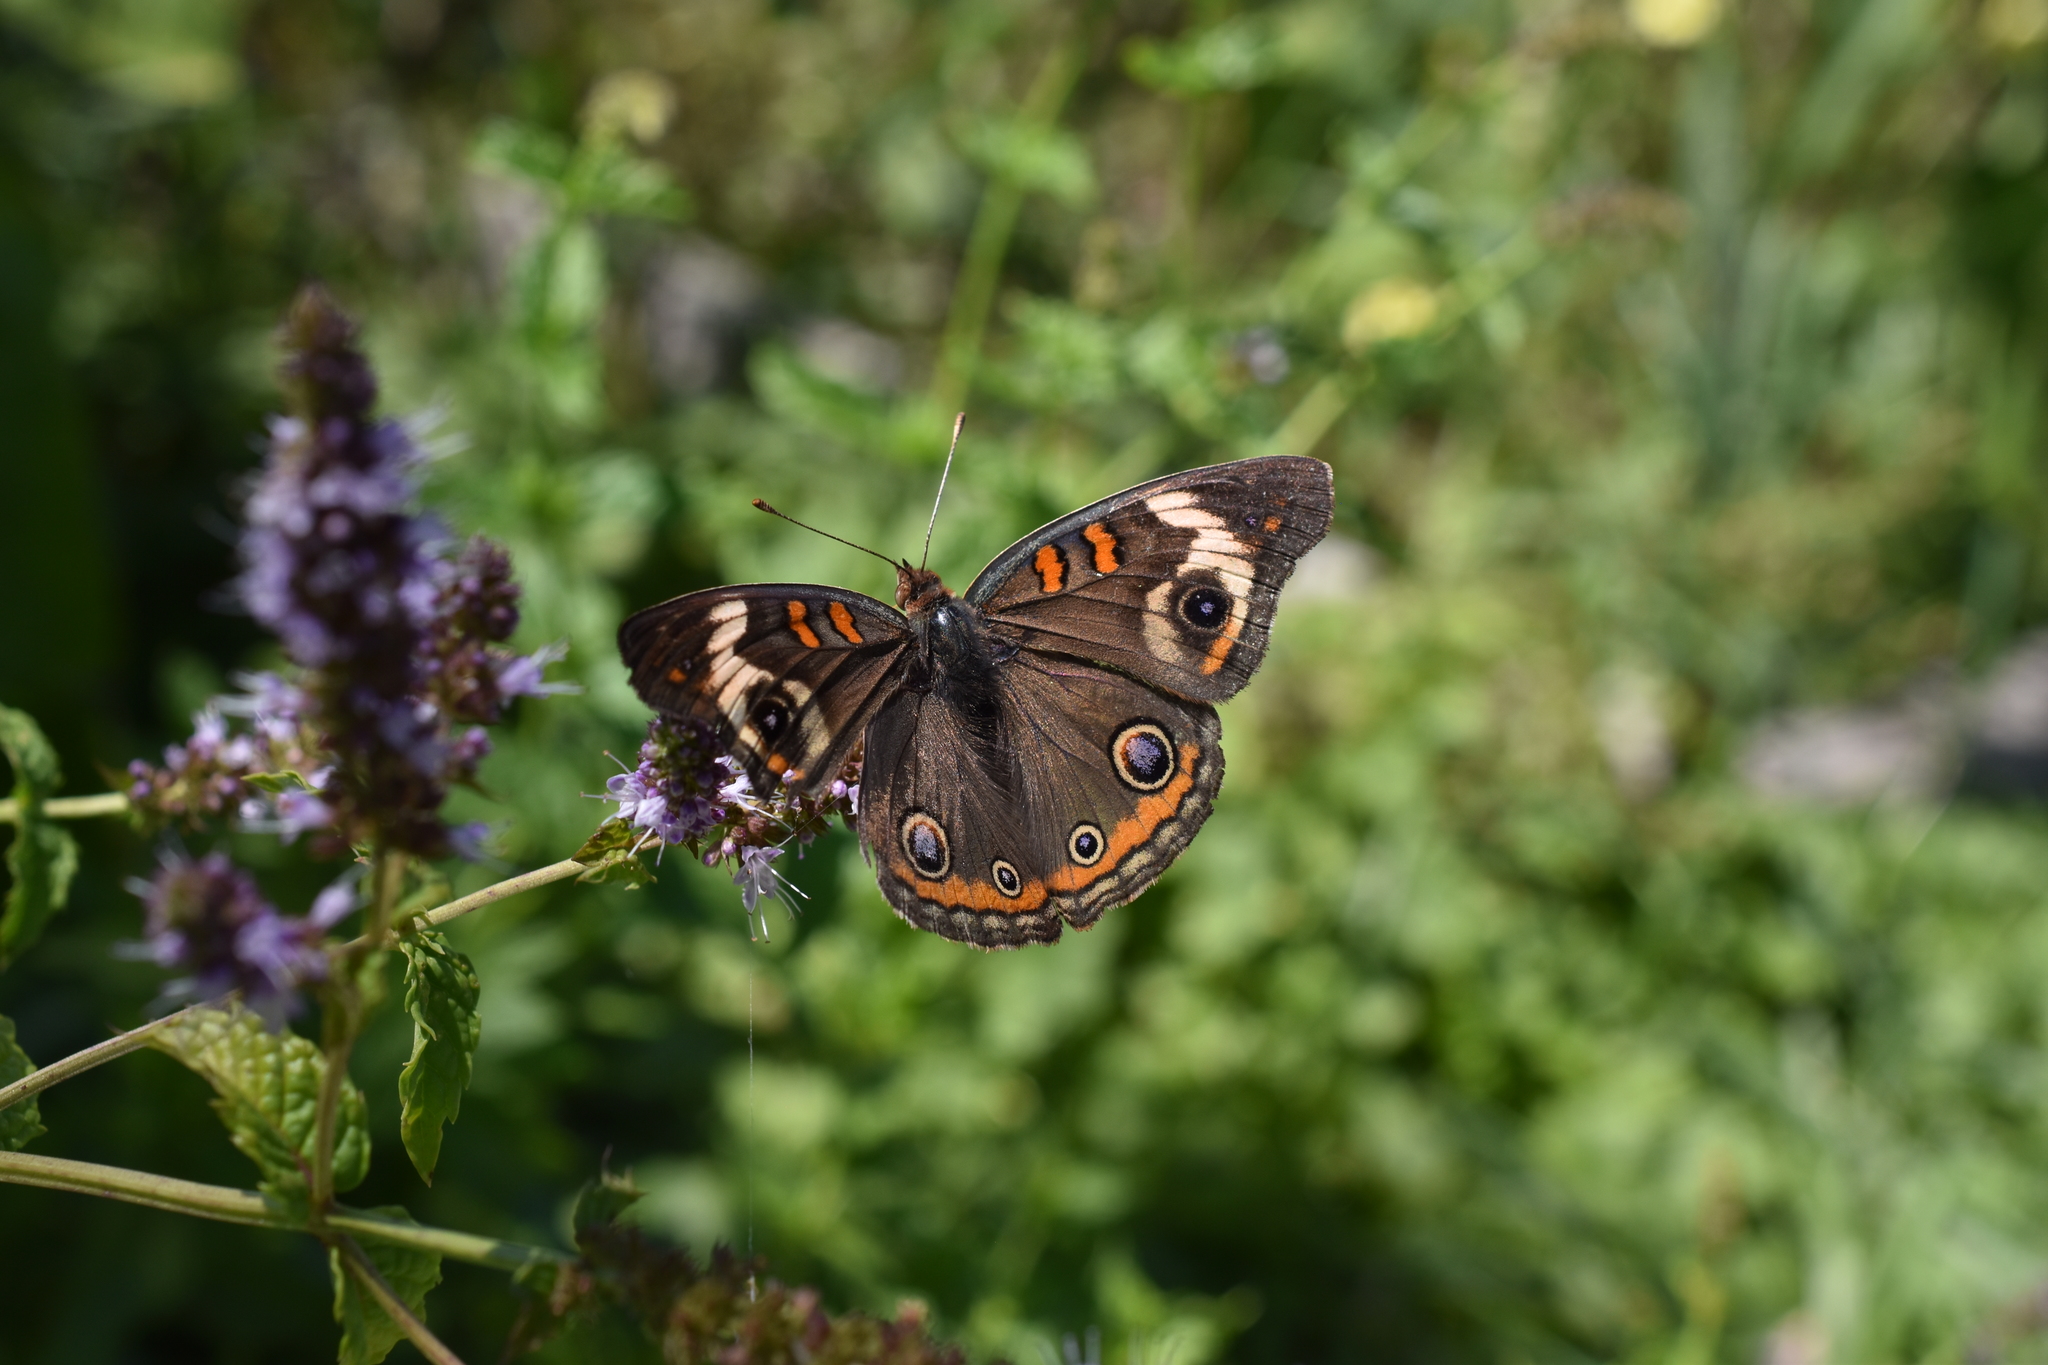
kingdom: Animalia
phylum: Arthropoda
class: Insecta
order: Lepidoptera
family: Nymphalidae
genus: Junonia
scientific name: Junonia coenia
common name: Common buckeye
